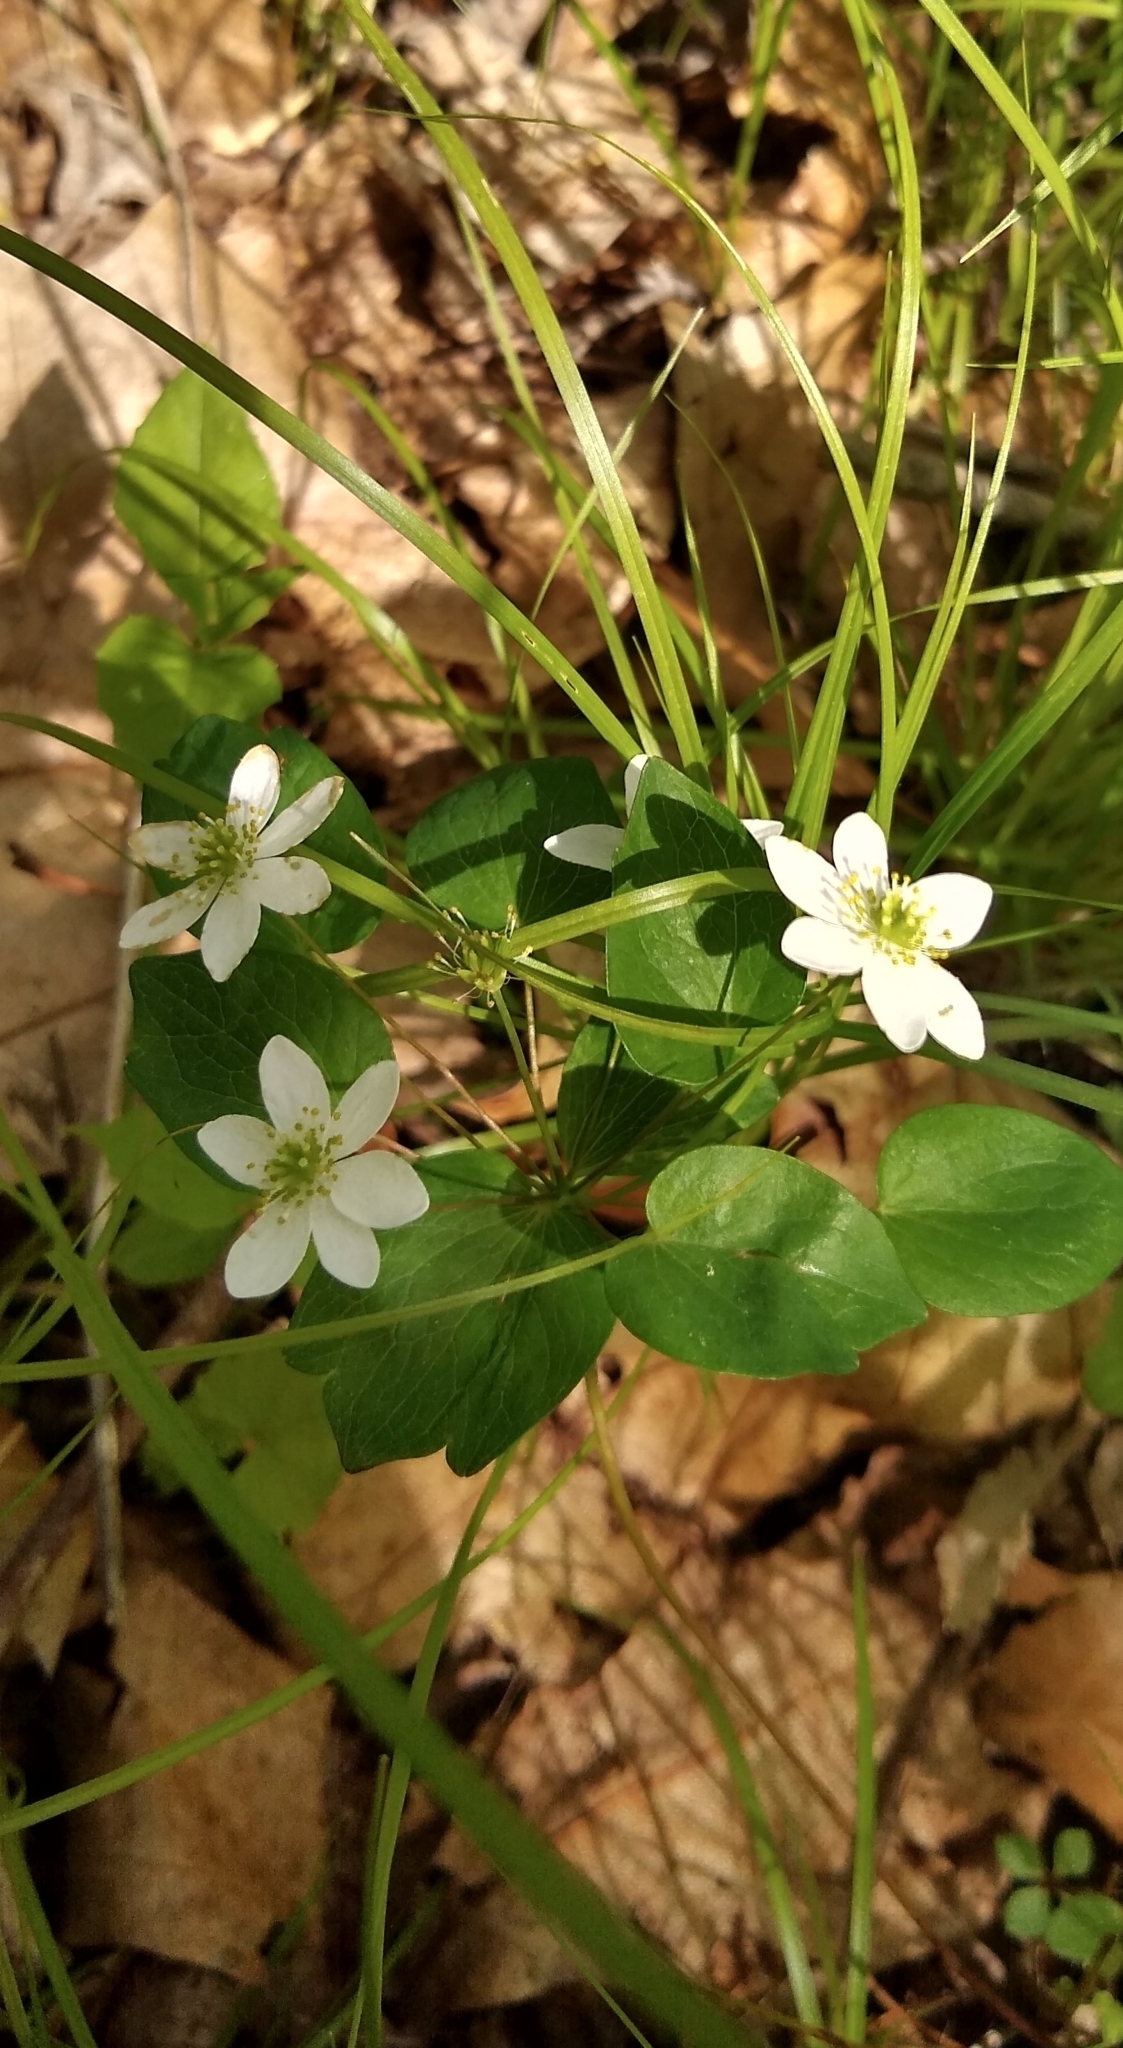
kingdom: Plantae
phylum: Tracheophyta
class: Magnoliopsida
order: Ranunculales
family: Ranunculaceae
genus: Thalictrum
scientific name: Thalictrum thalictroides
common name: Rue-anemone
